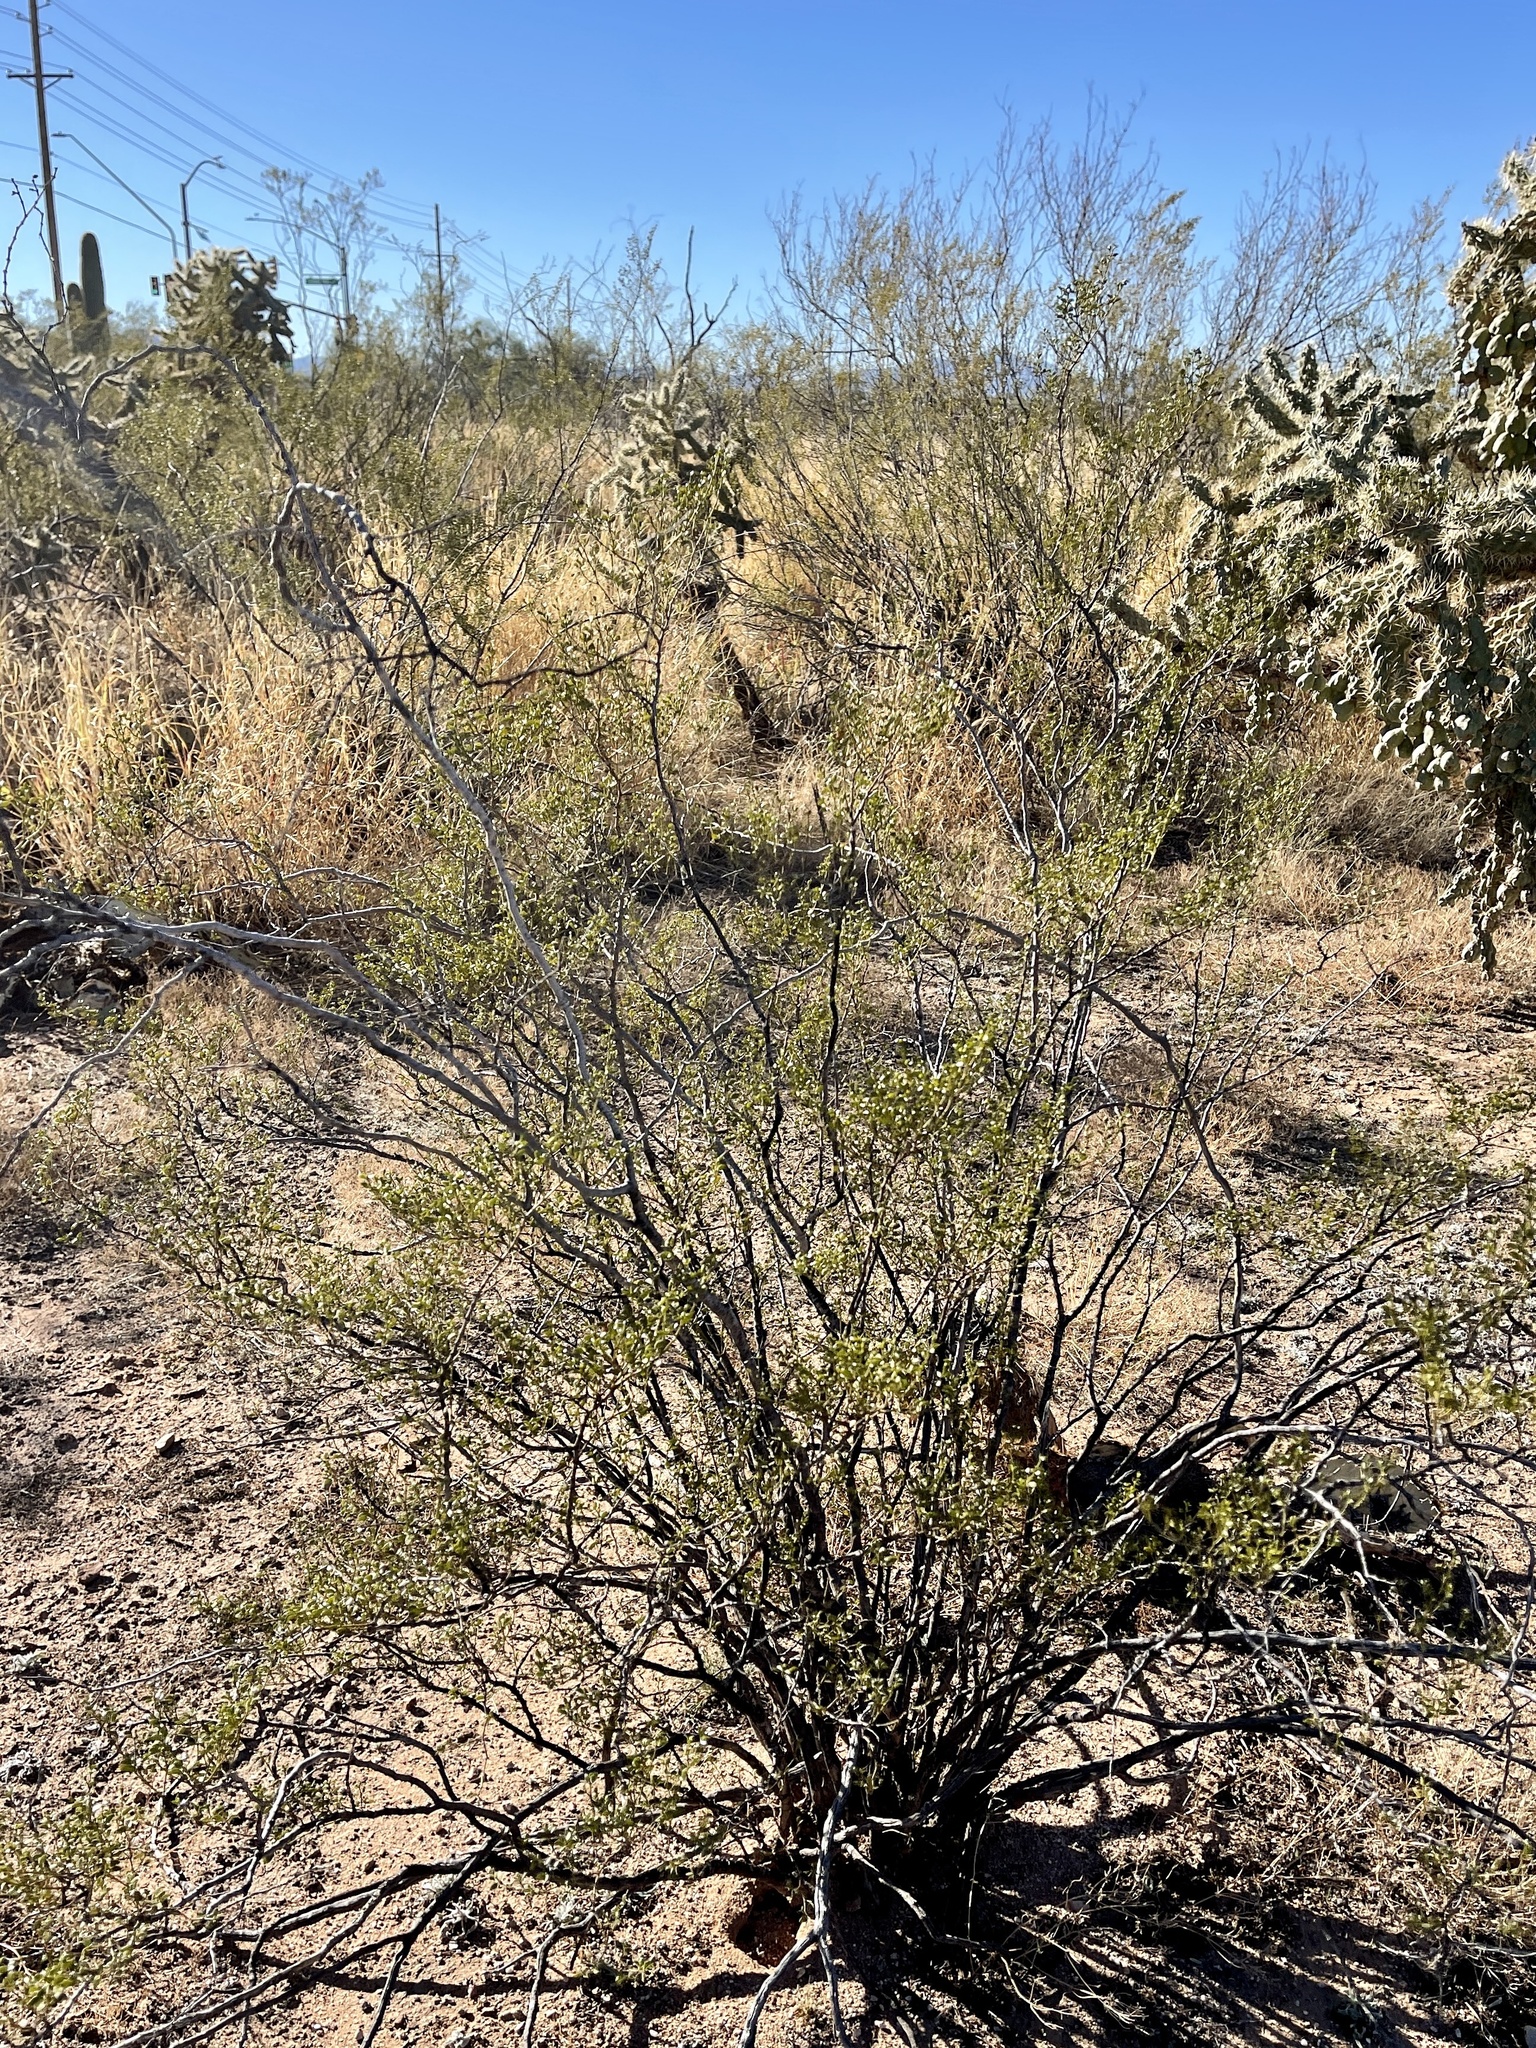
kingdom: Plantae
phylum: Tracheophyta
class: Magnoliopsida
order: Zygophyllales
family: Zygophyllaceae
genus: Larrea
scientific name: Larrea tridentata
